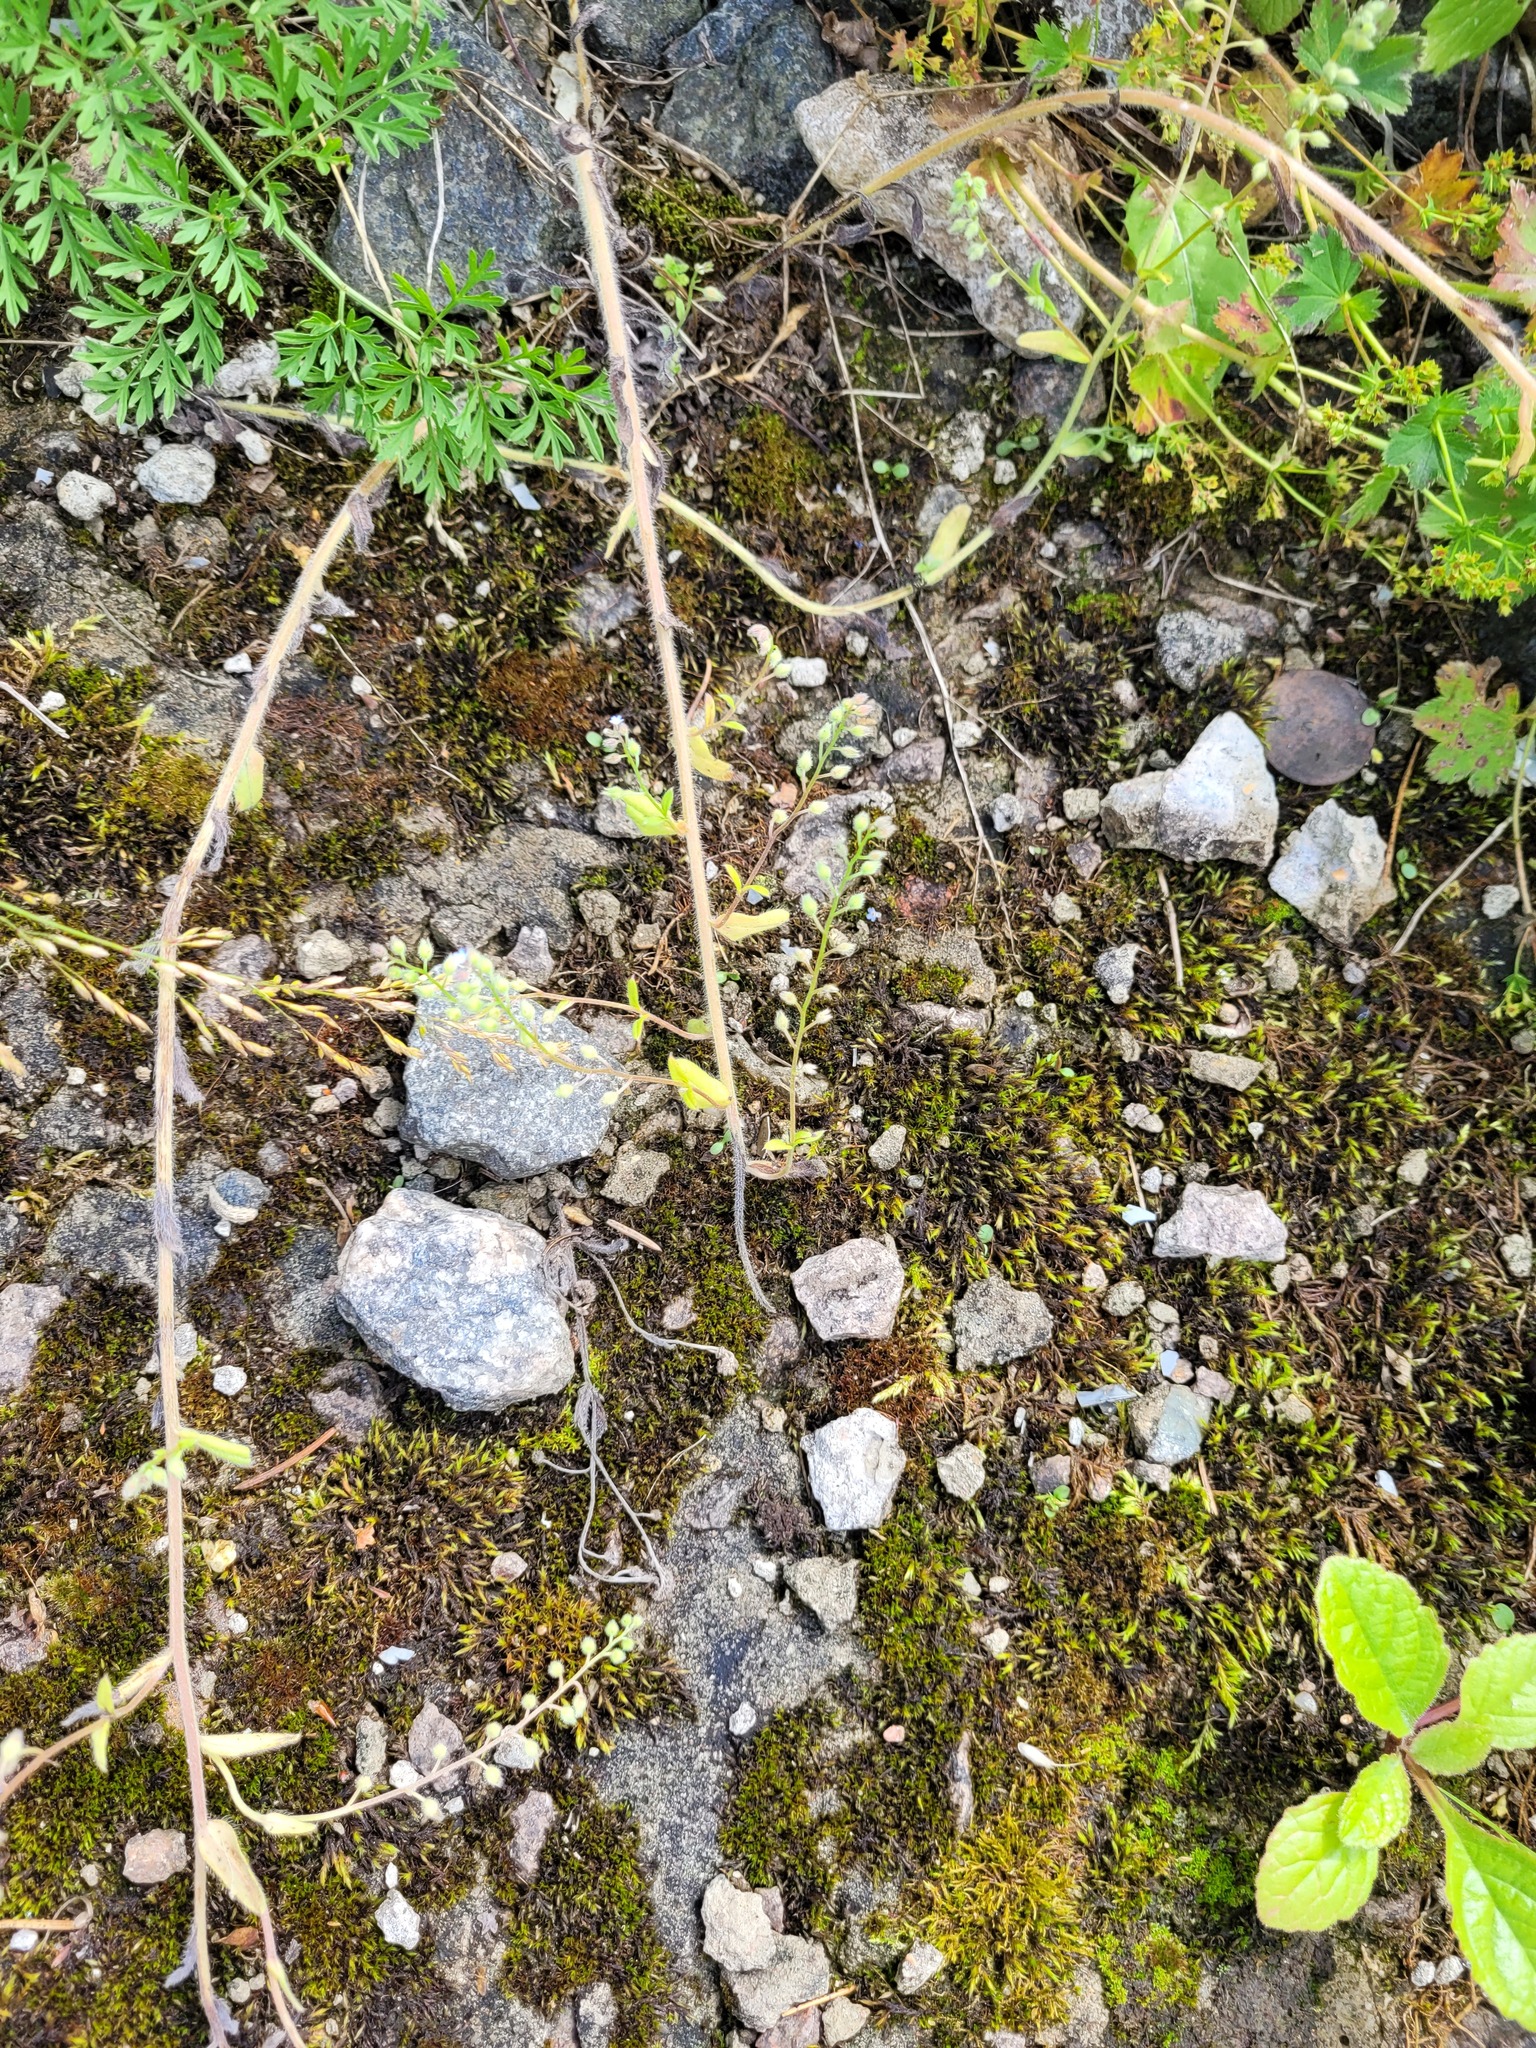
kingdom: Plantae
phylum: Tracheophyta
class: Magnoliopsida
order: Boraginales
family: Boraginaceae
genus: Myosotis
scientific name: Myosotis arvensis
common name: Field forget-me-not
